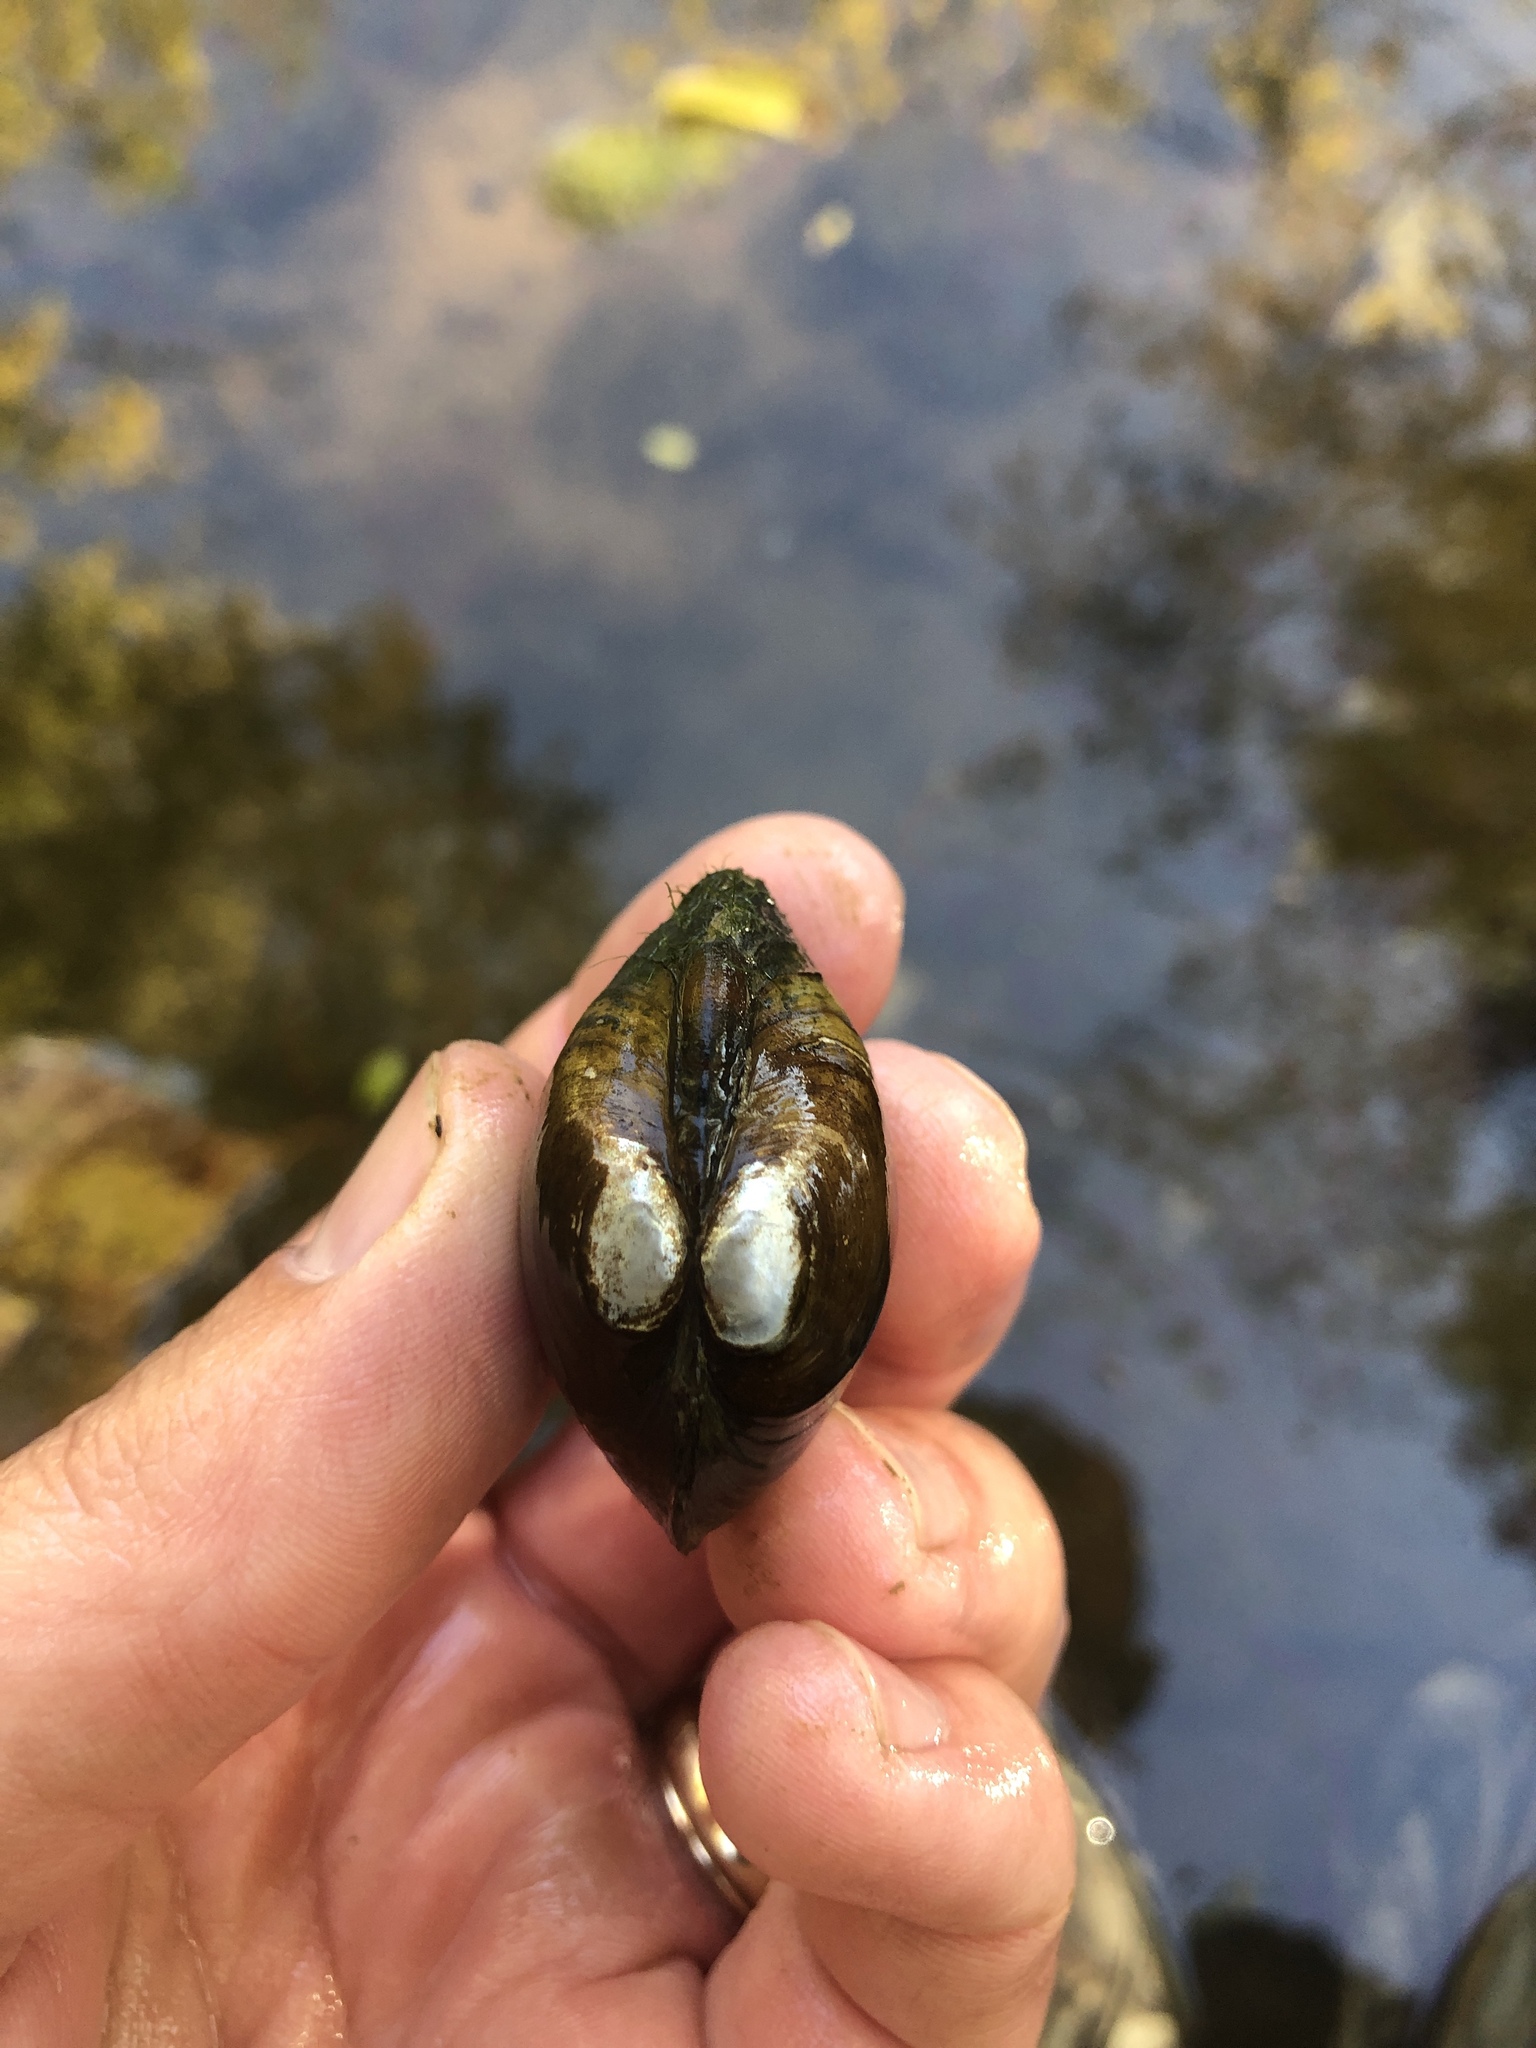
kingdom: Animalia
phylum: Mollusca
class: Bivalvia
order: Unionida
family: Unionidae
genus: Obovaria
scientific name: Obovaria subrotunda
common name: Round hickorynut
